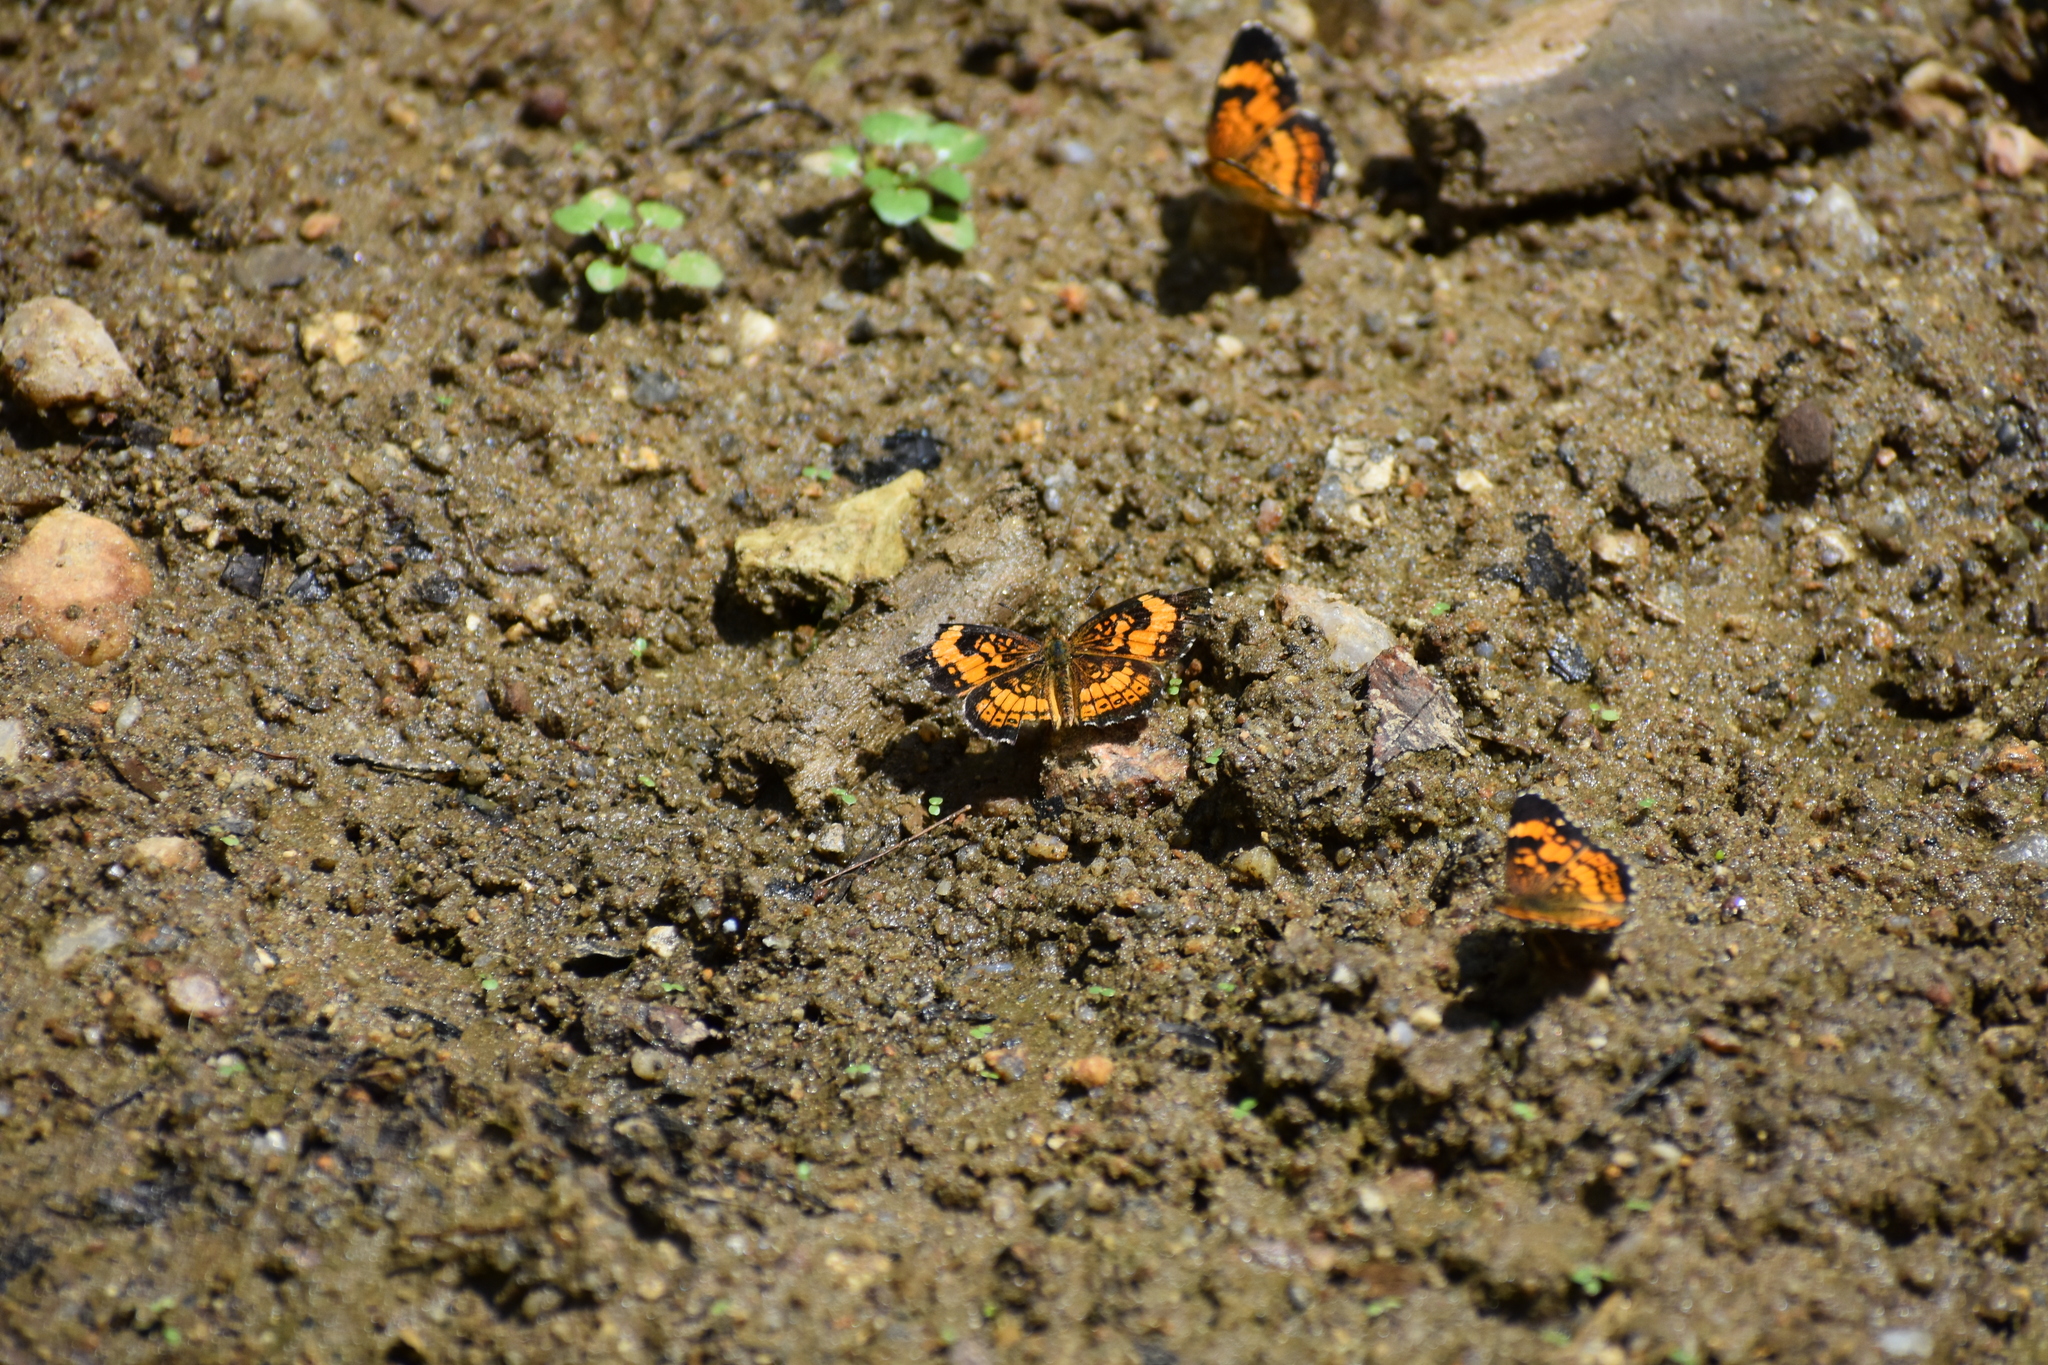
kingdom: Animalia
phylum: Arthropoda
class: Insecta
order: Lepidoptera
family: Nymphalidae
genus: Chlosyne
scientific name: Chlosyne nycteis
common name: Silvery checkerspot
